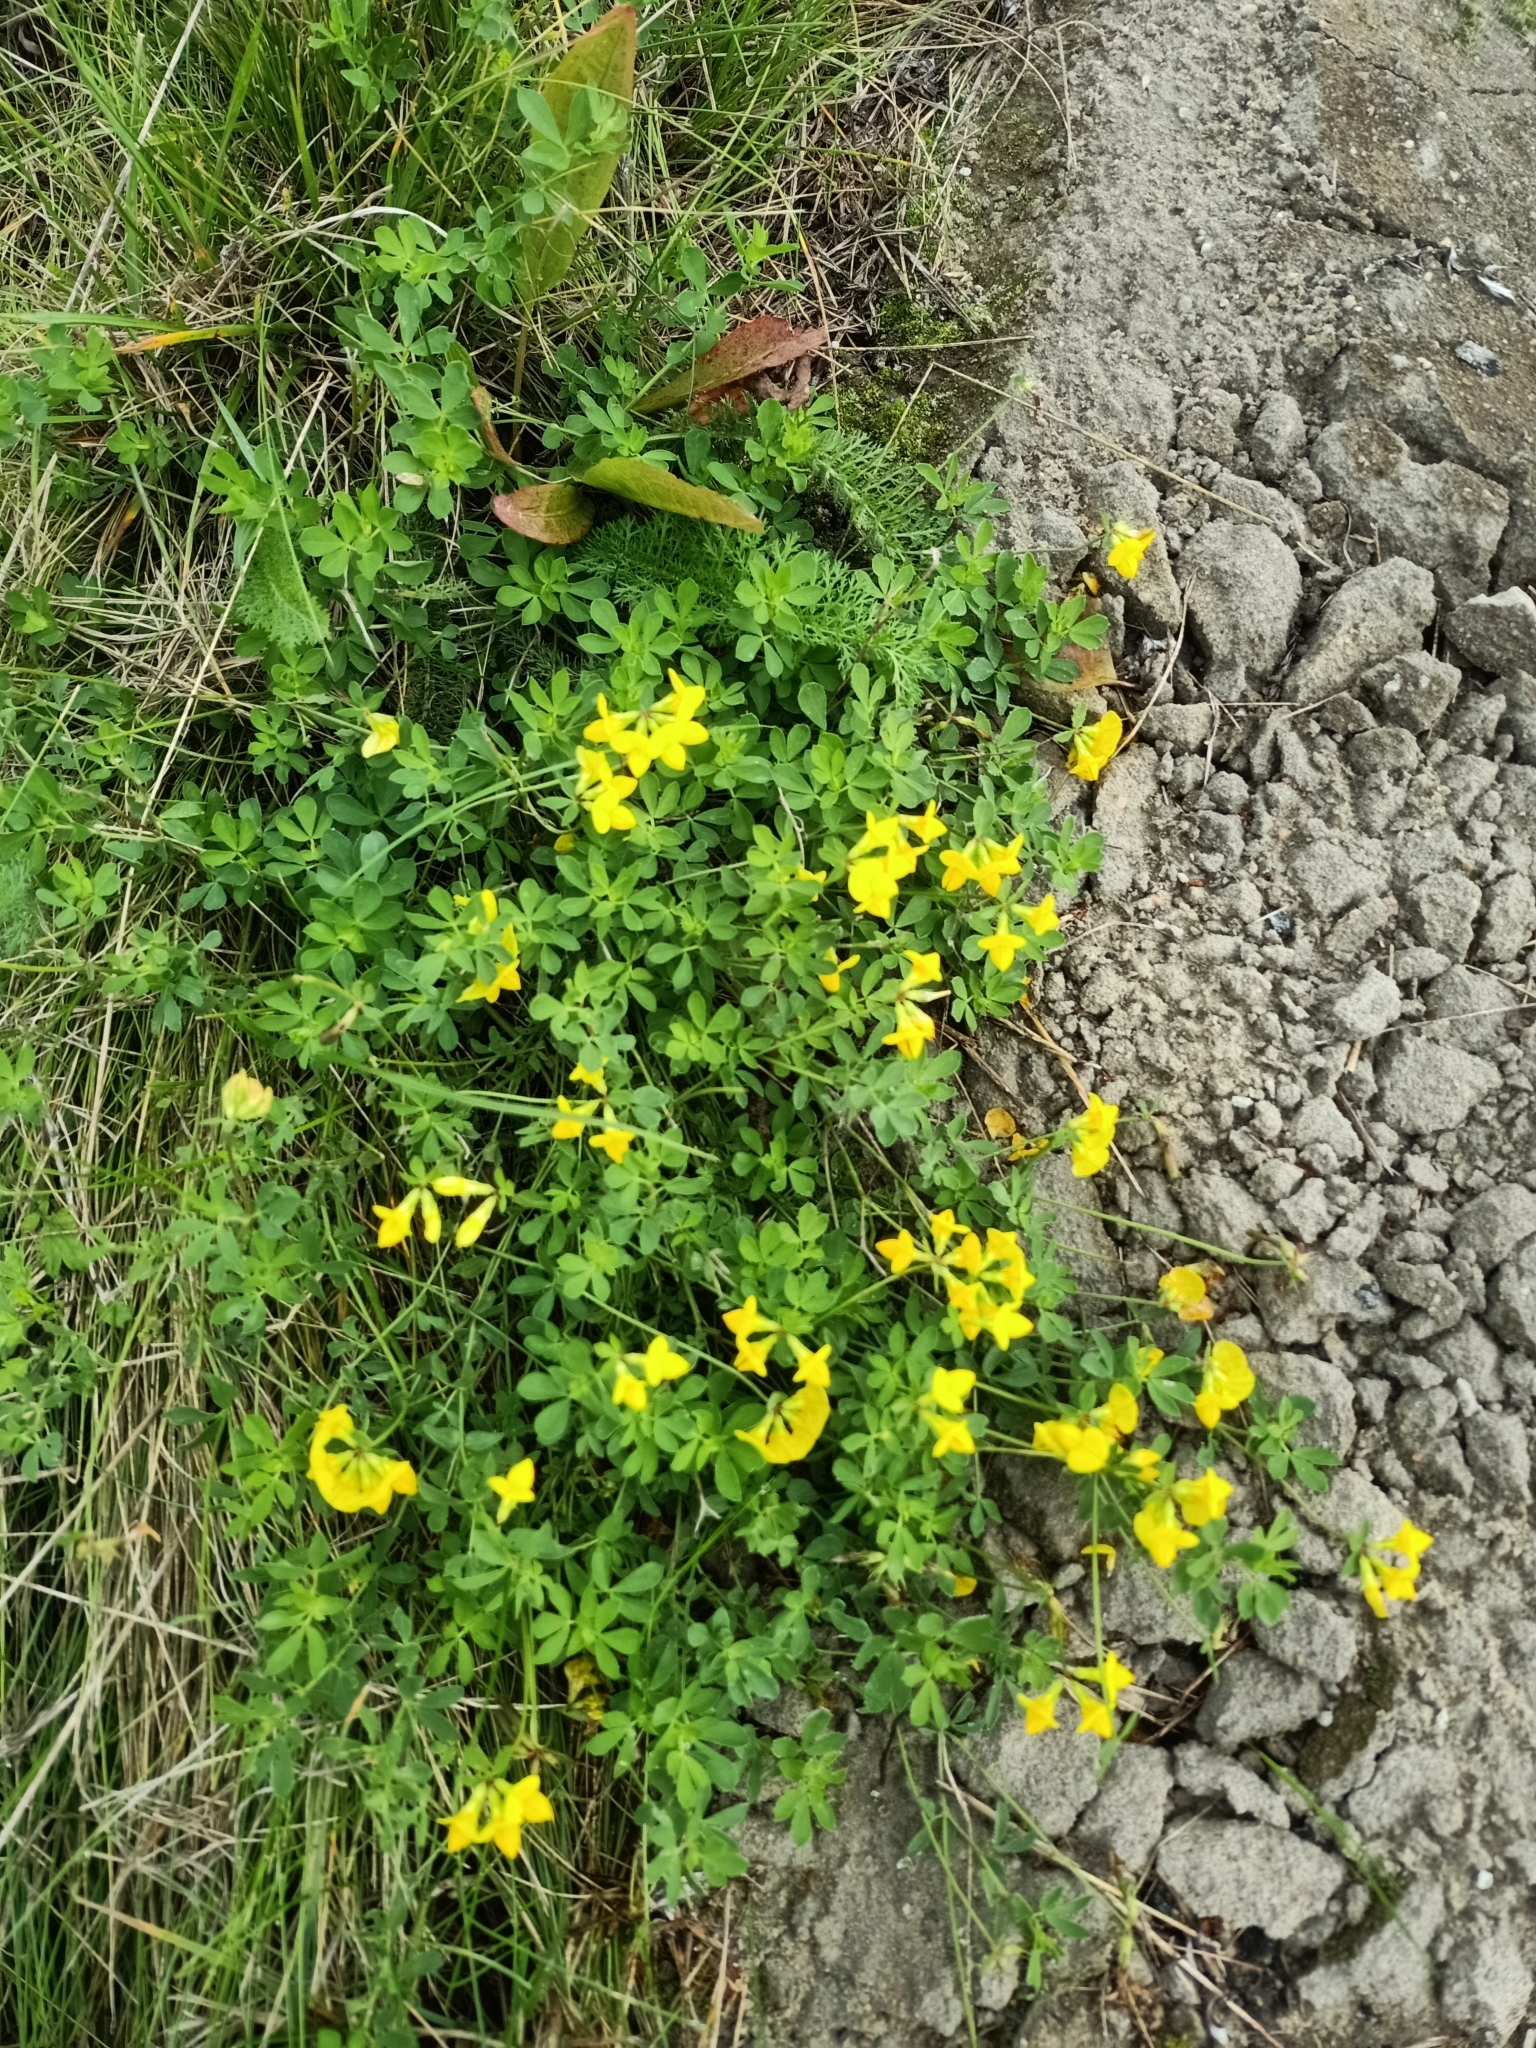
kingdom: Plantae
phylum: Tracheophyta
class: Magnoliopsida
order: Fabales
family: Fabaceae
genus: Lotus
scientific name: Lotus corniculatus
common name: Common bird's-foot-trefoil
